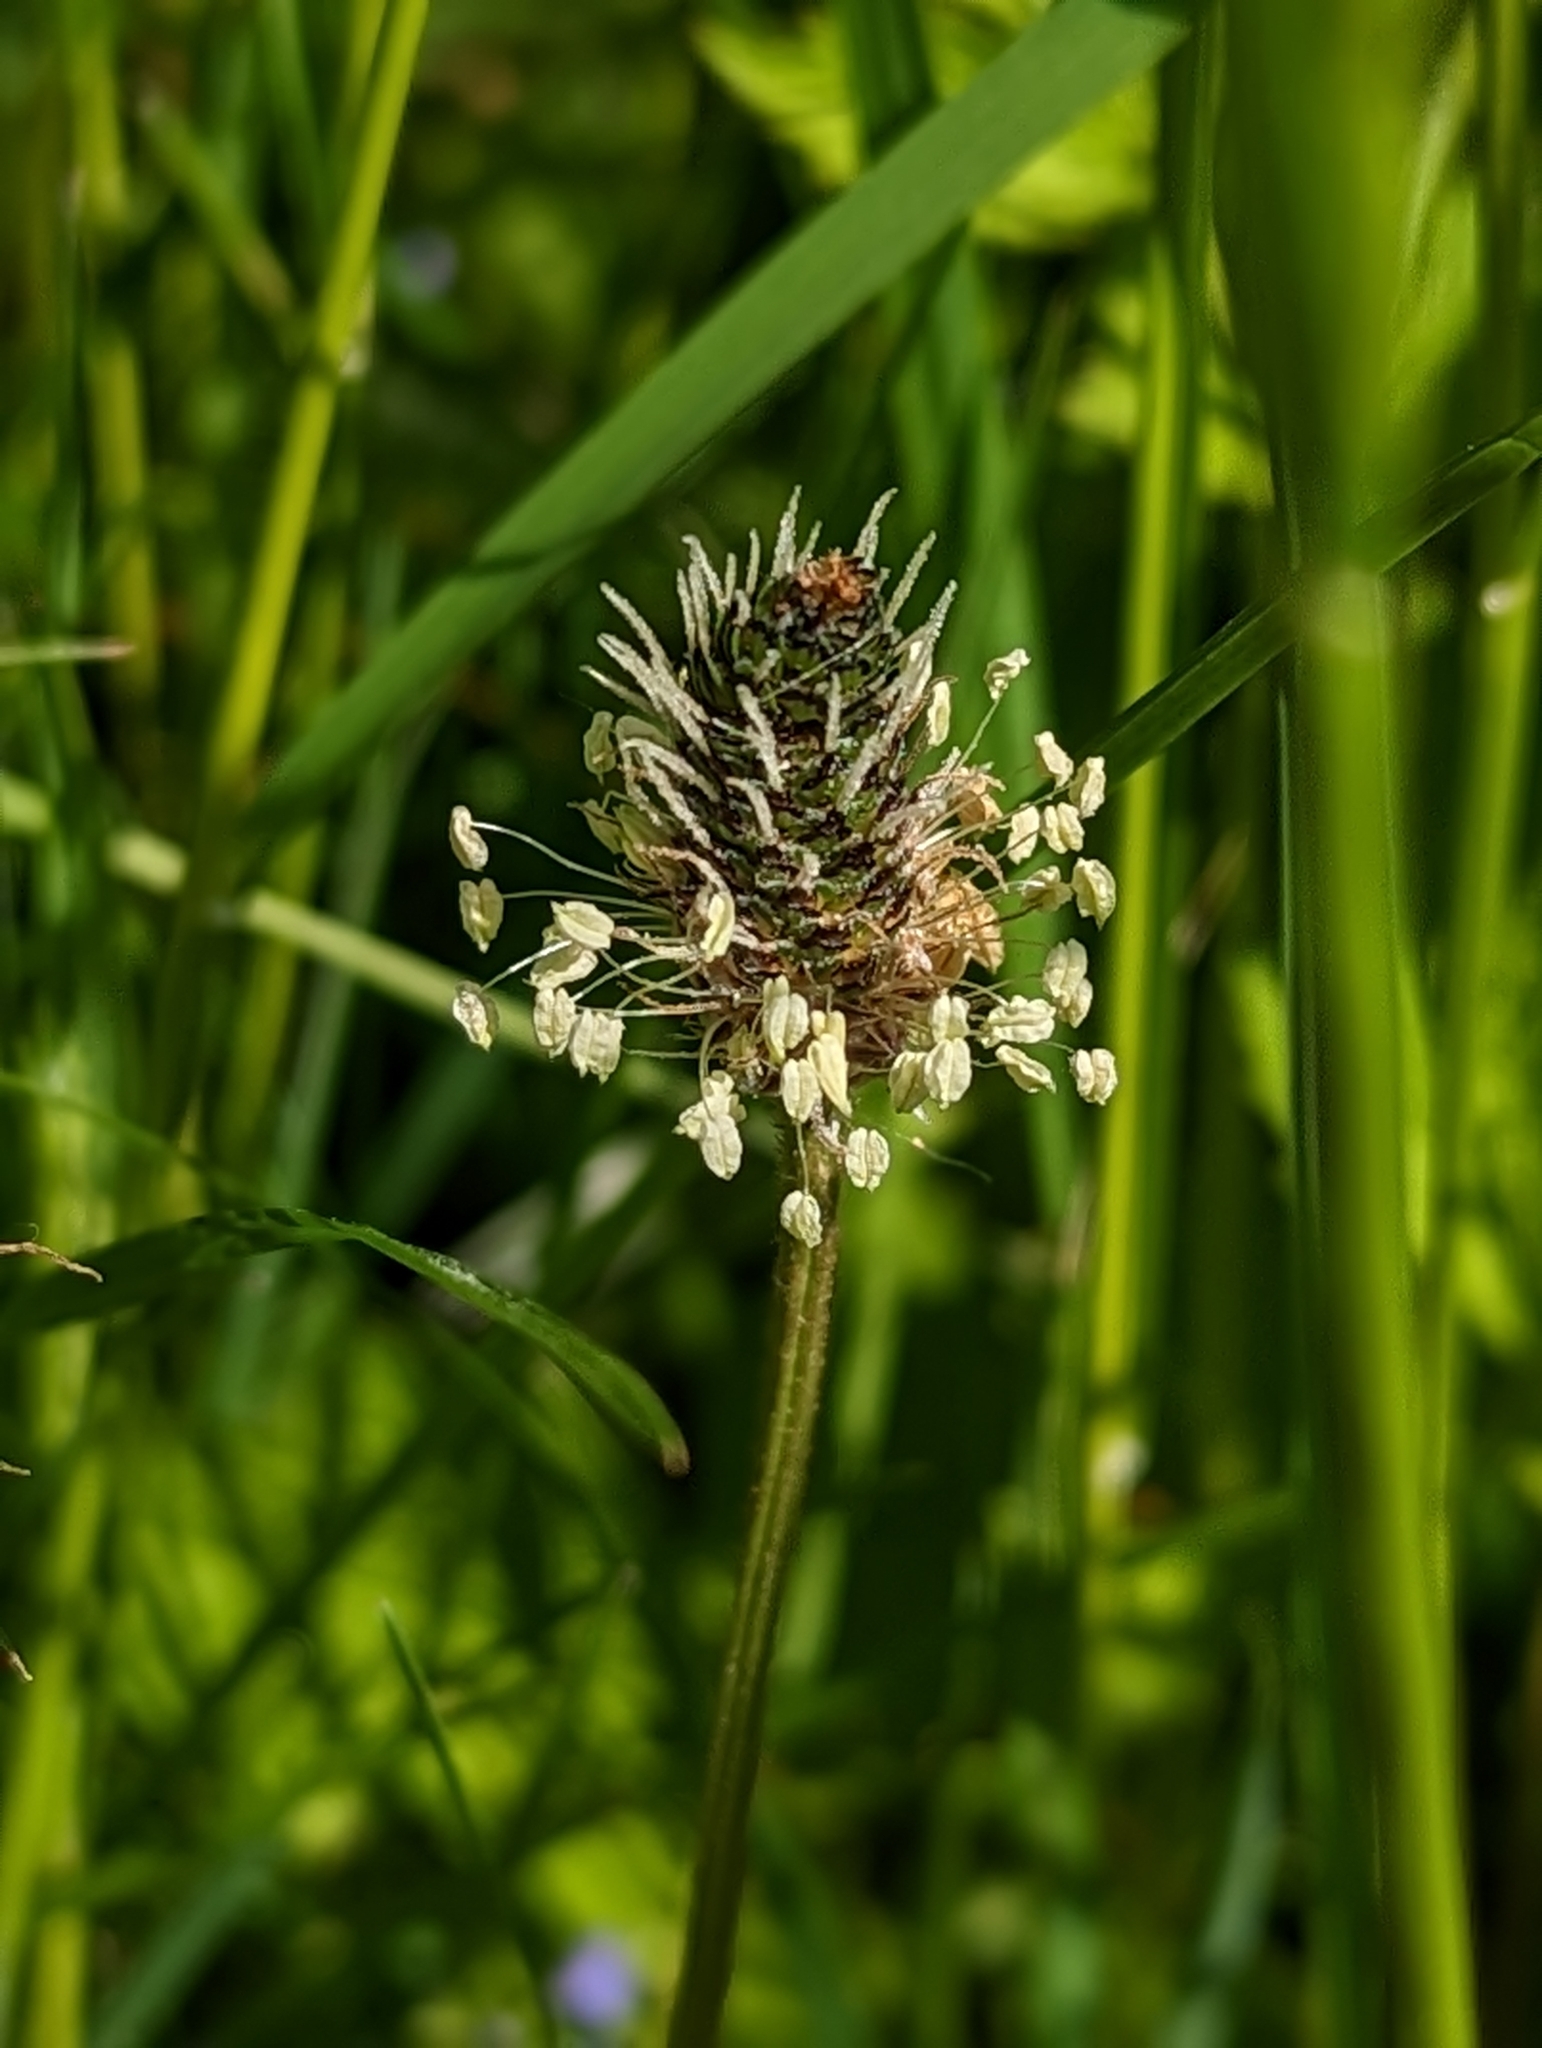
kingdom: Plantae
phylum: Tracheophyta
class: Magnoliopsida
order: Lamiales
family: Plantaginaceae
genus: Plantago
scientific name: Plantago lanceolata
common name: Ribwort plantain
